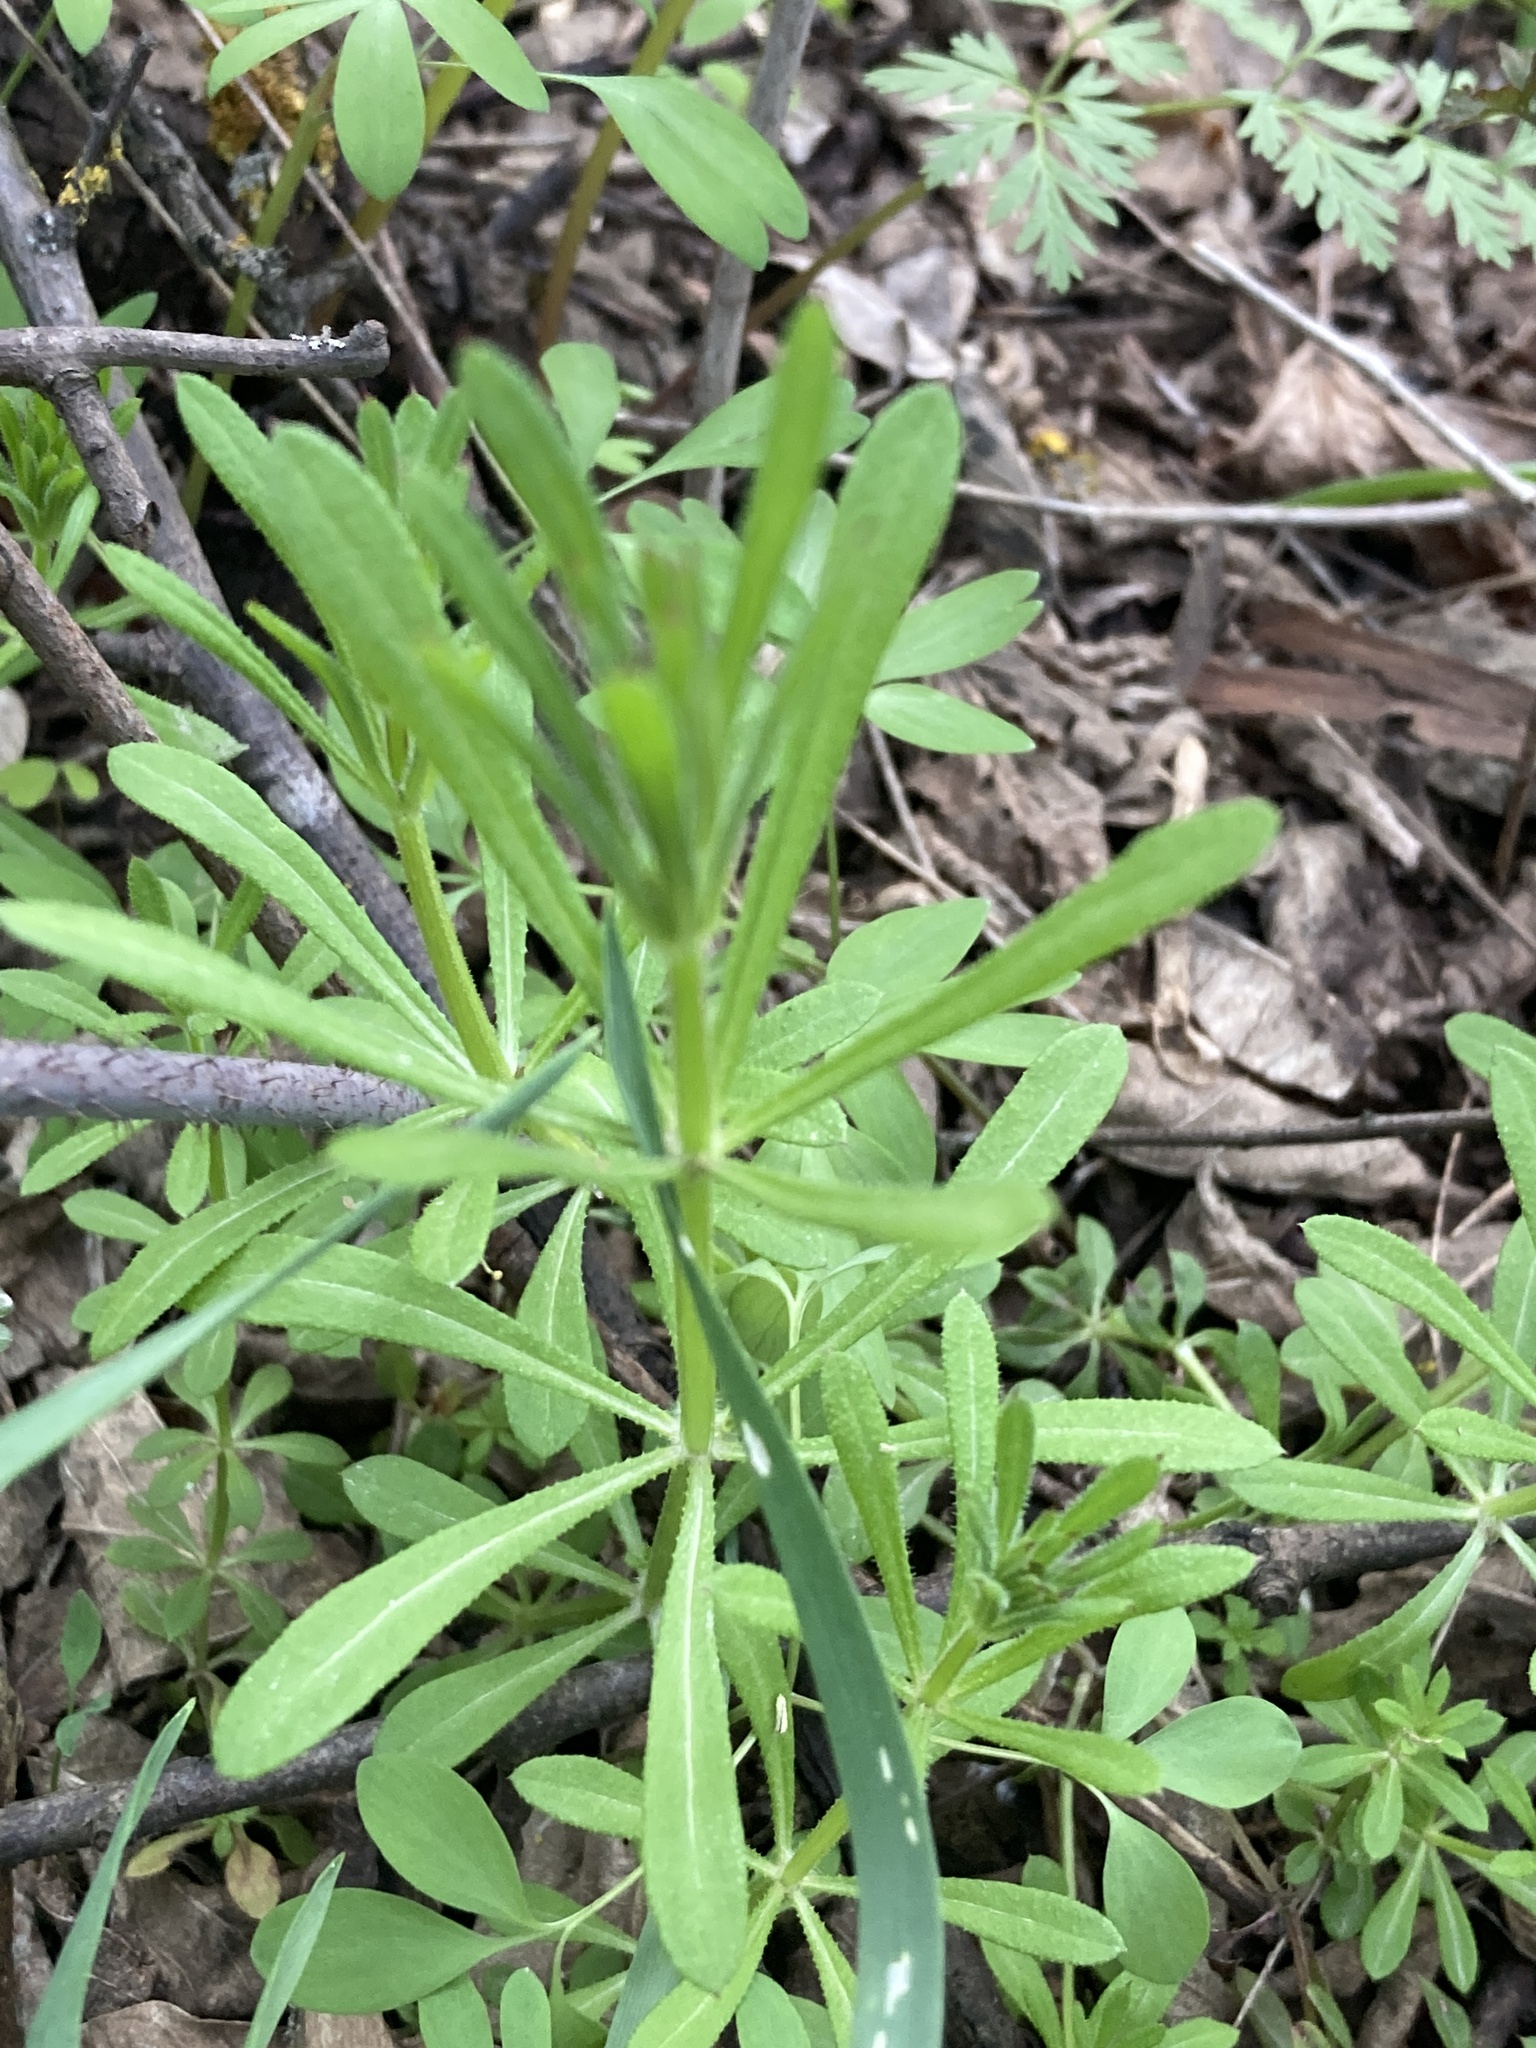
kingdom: Plantae
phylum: Tracheophyta
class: Magnoliopsida
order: Gentianales
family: Rubiaceae
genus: Galium
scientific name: Galium aparine
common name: Cleavers
